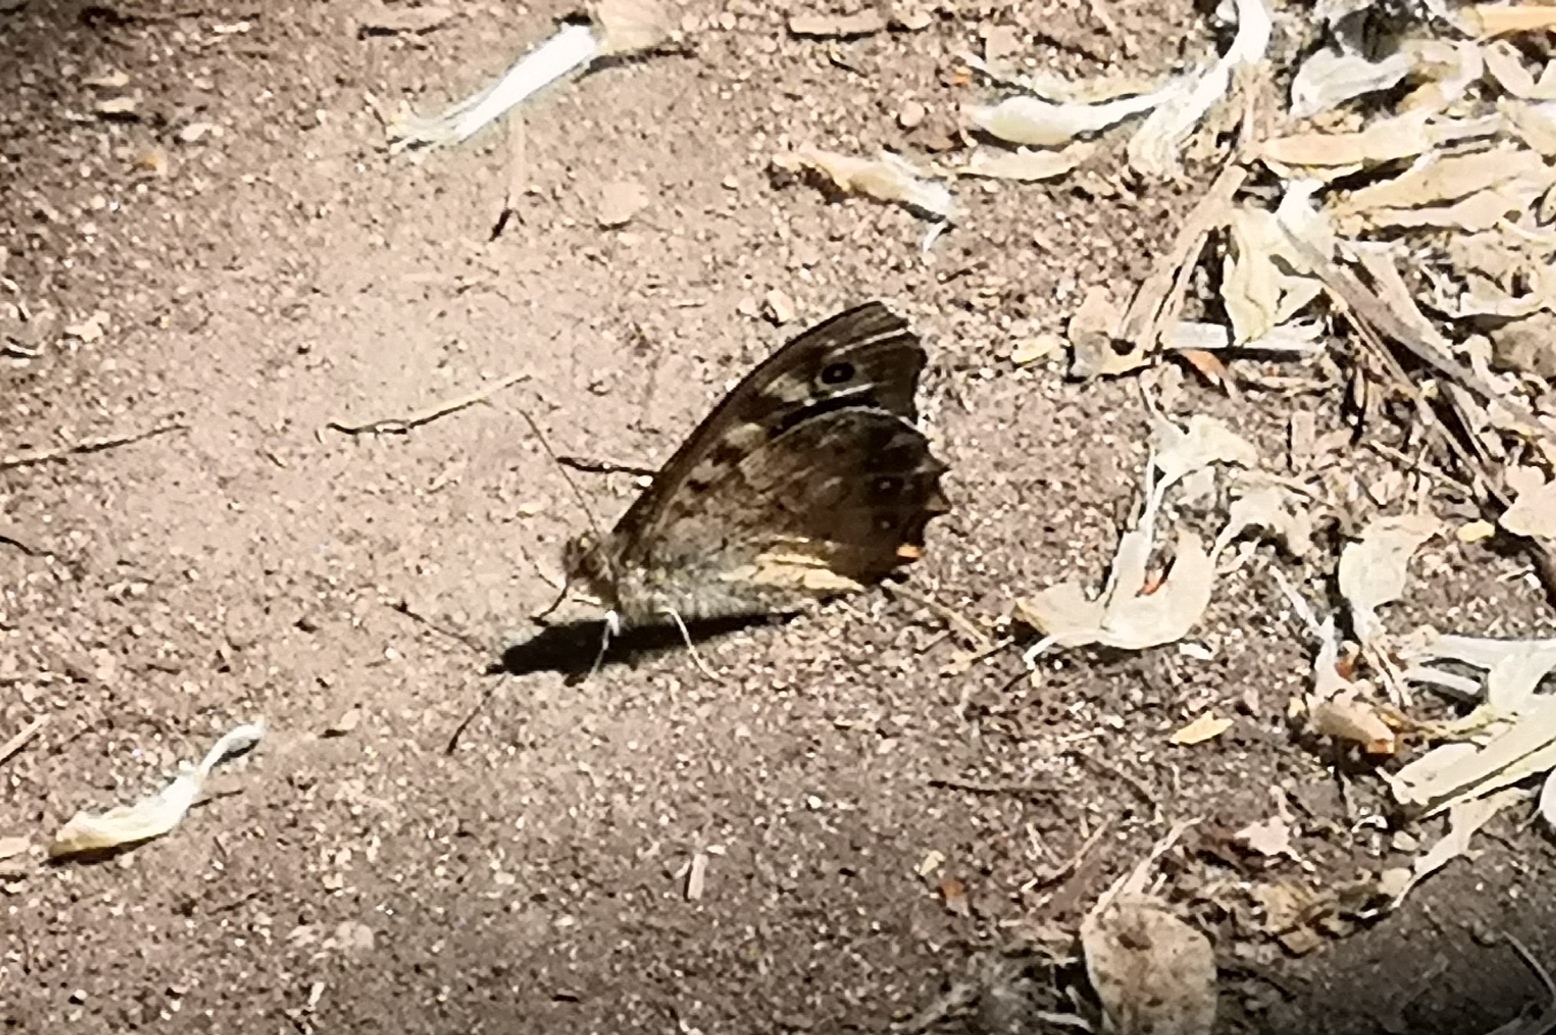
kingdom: Animalia
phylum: Arthropoda
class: Insecta
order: Lepidoptera
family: Nymphalidae
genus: Pararge
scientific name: Pararge aegeria
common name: Speckled wood
